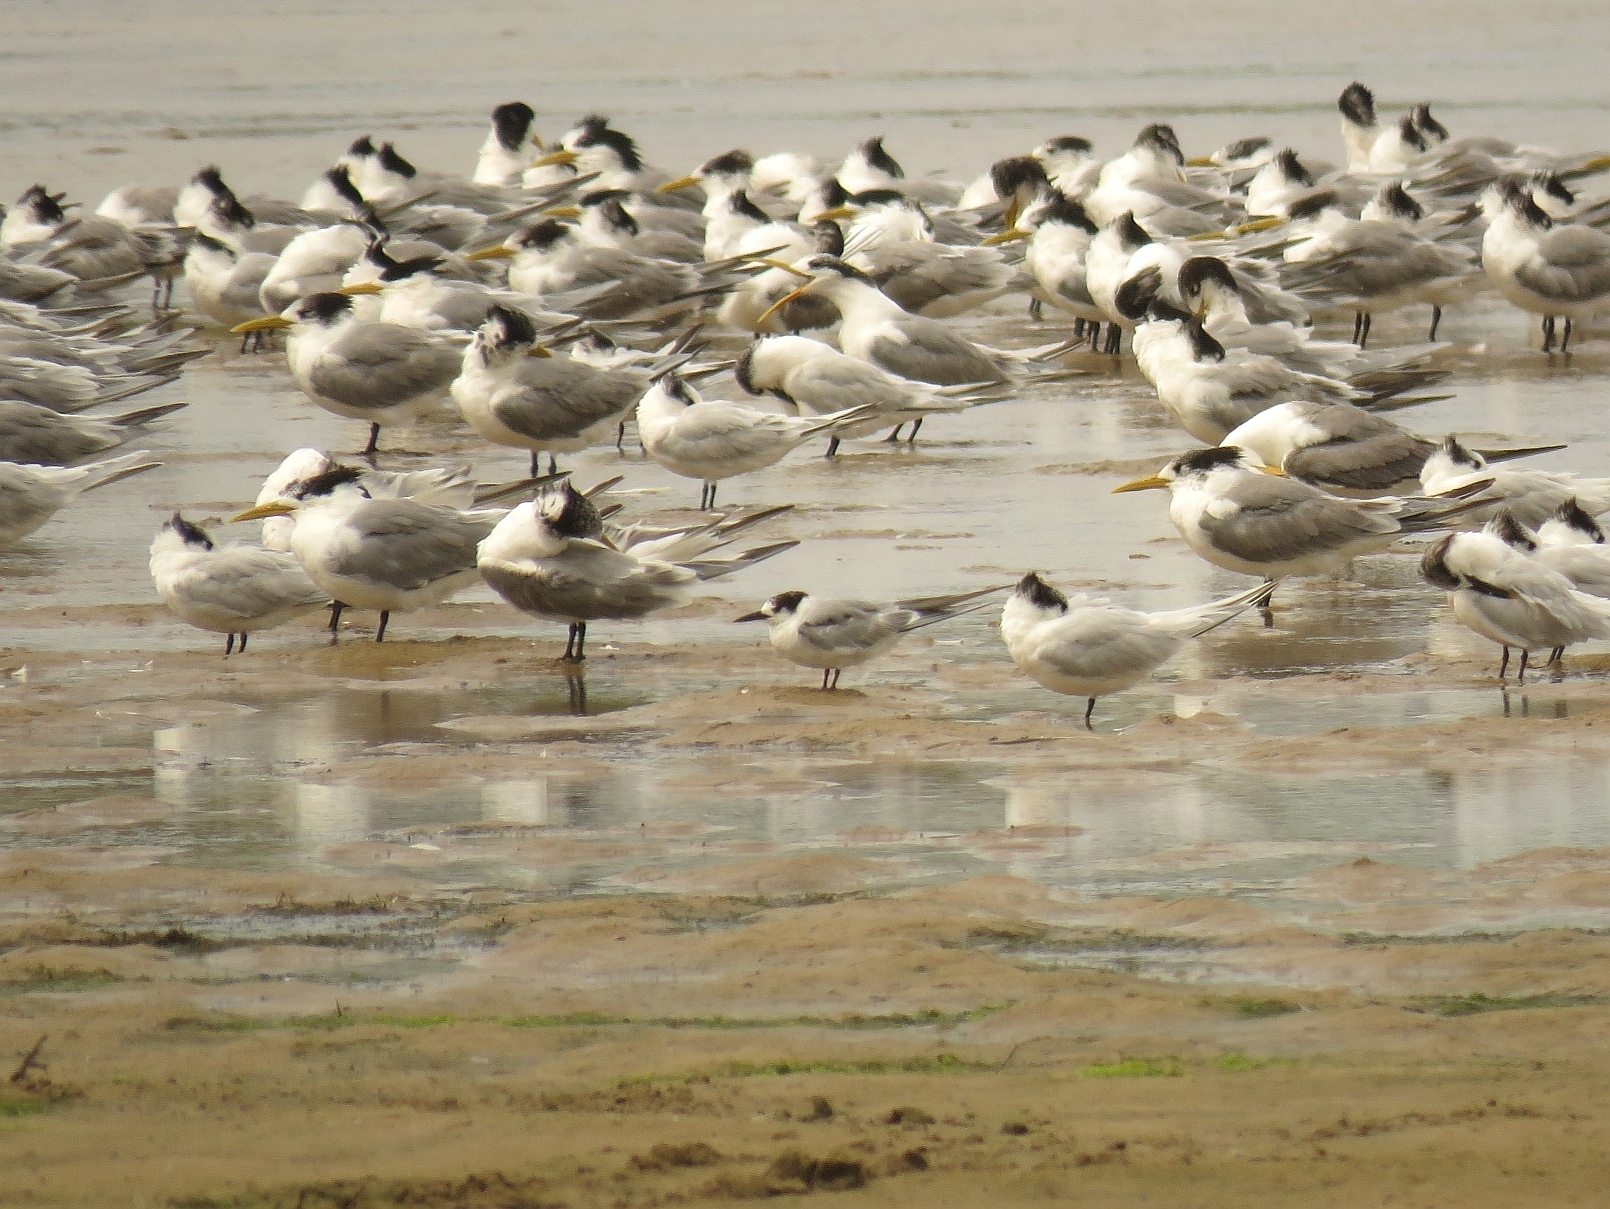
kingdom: Animalia
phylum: Chordata
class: Aves
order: Charadriiformes
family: Laridae
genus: Sterna
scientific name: Sterna hirundo
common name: Common tern
